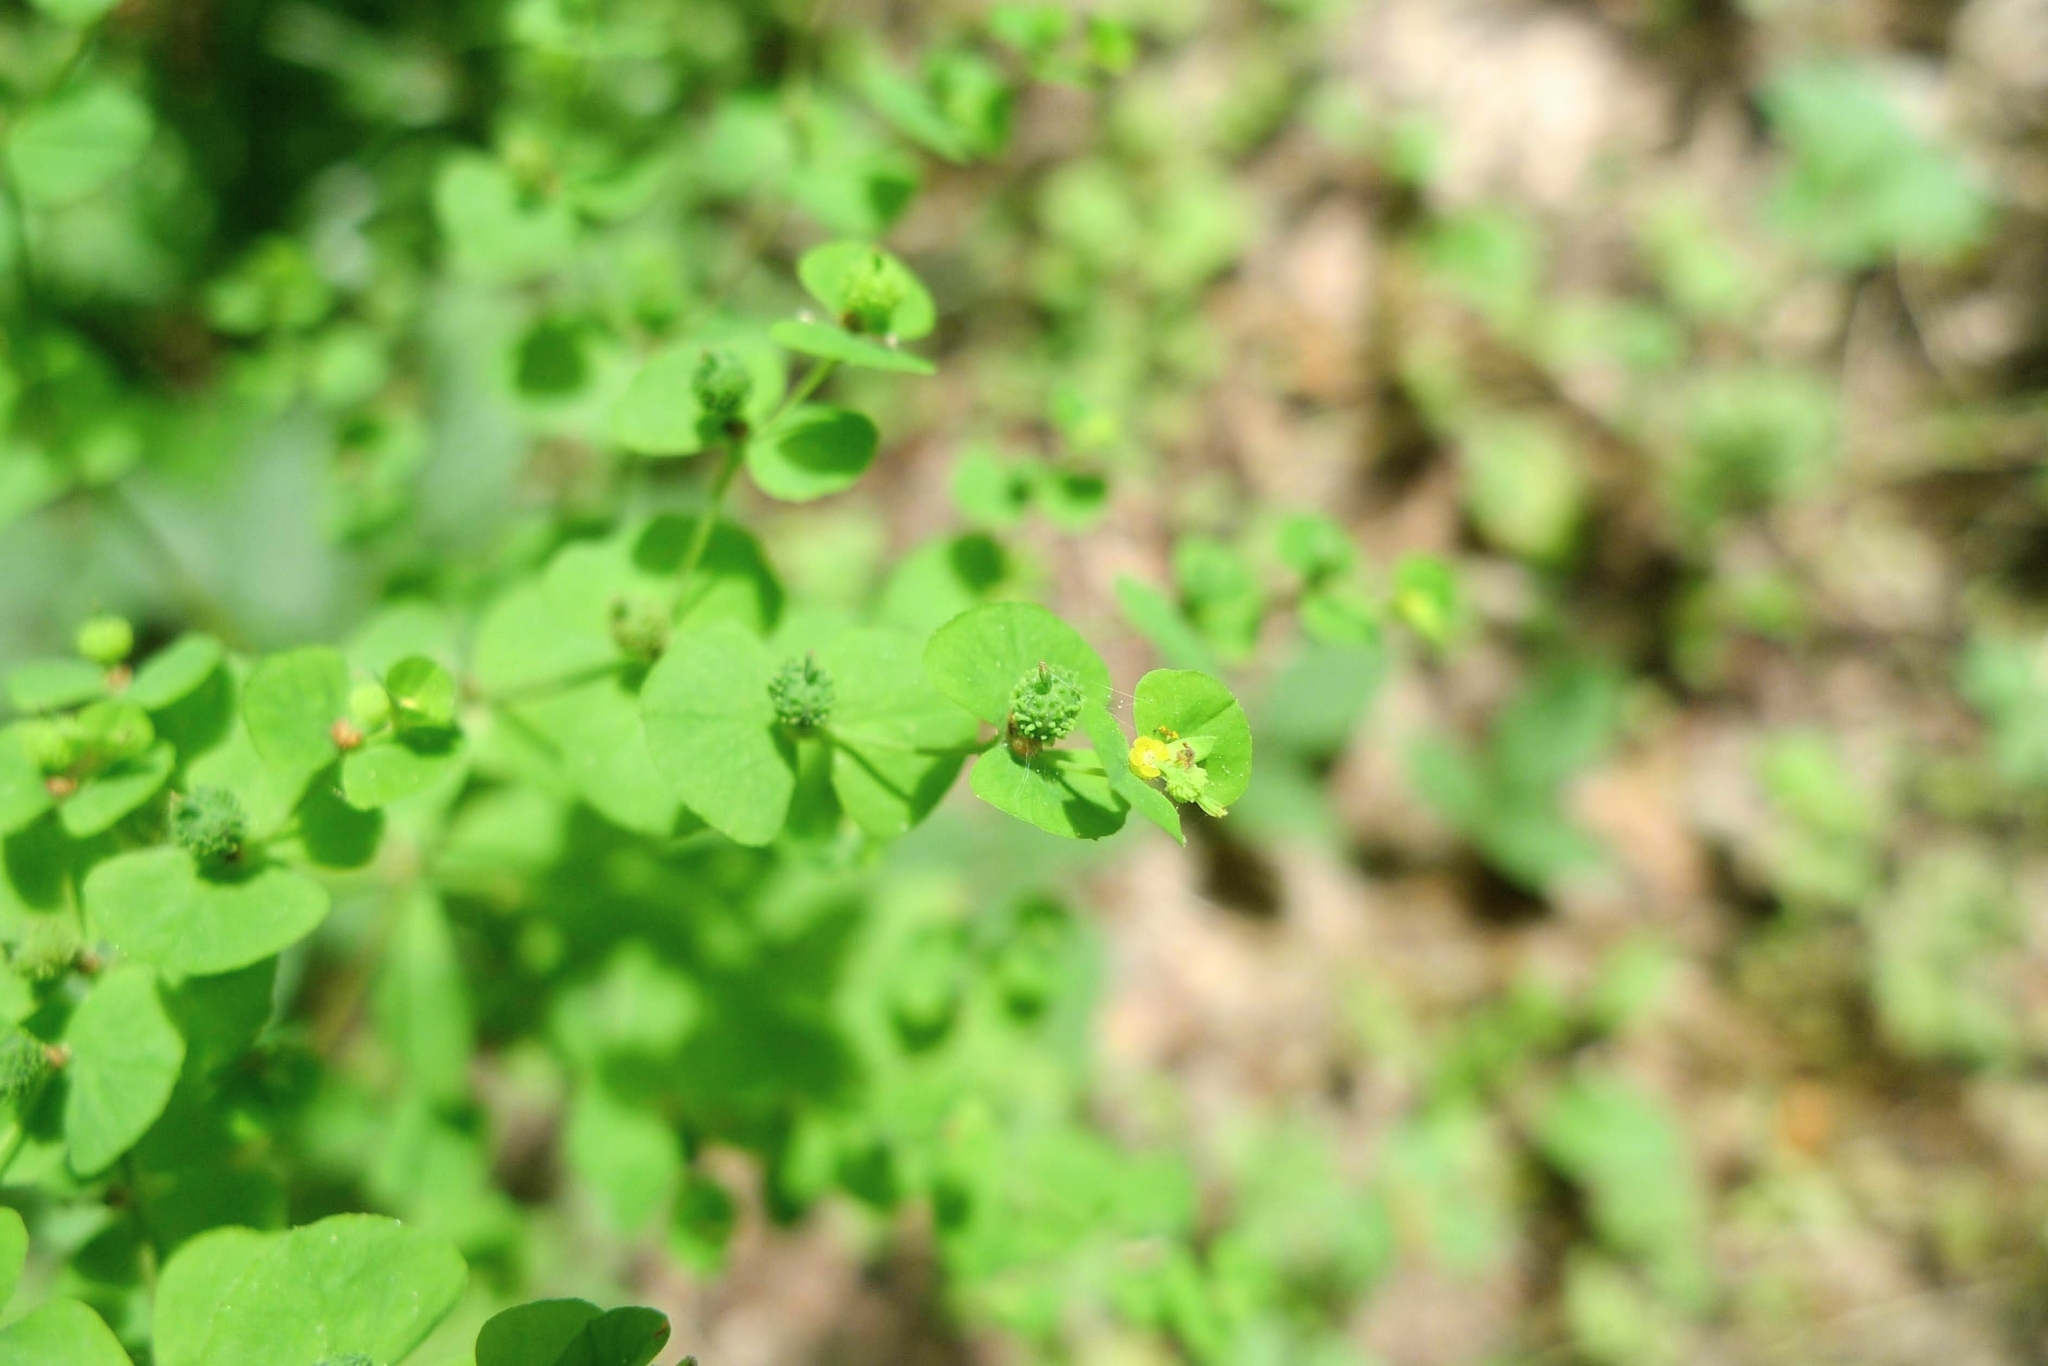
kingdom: Plantae
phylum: Tracheophyta
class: Magnoliopsida
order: Malpighiales
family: Euphorbiaceae
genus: Euphorbia
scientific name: Euphorbia stricta
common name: Upright spurge
